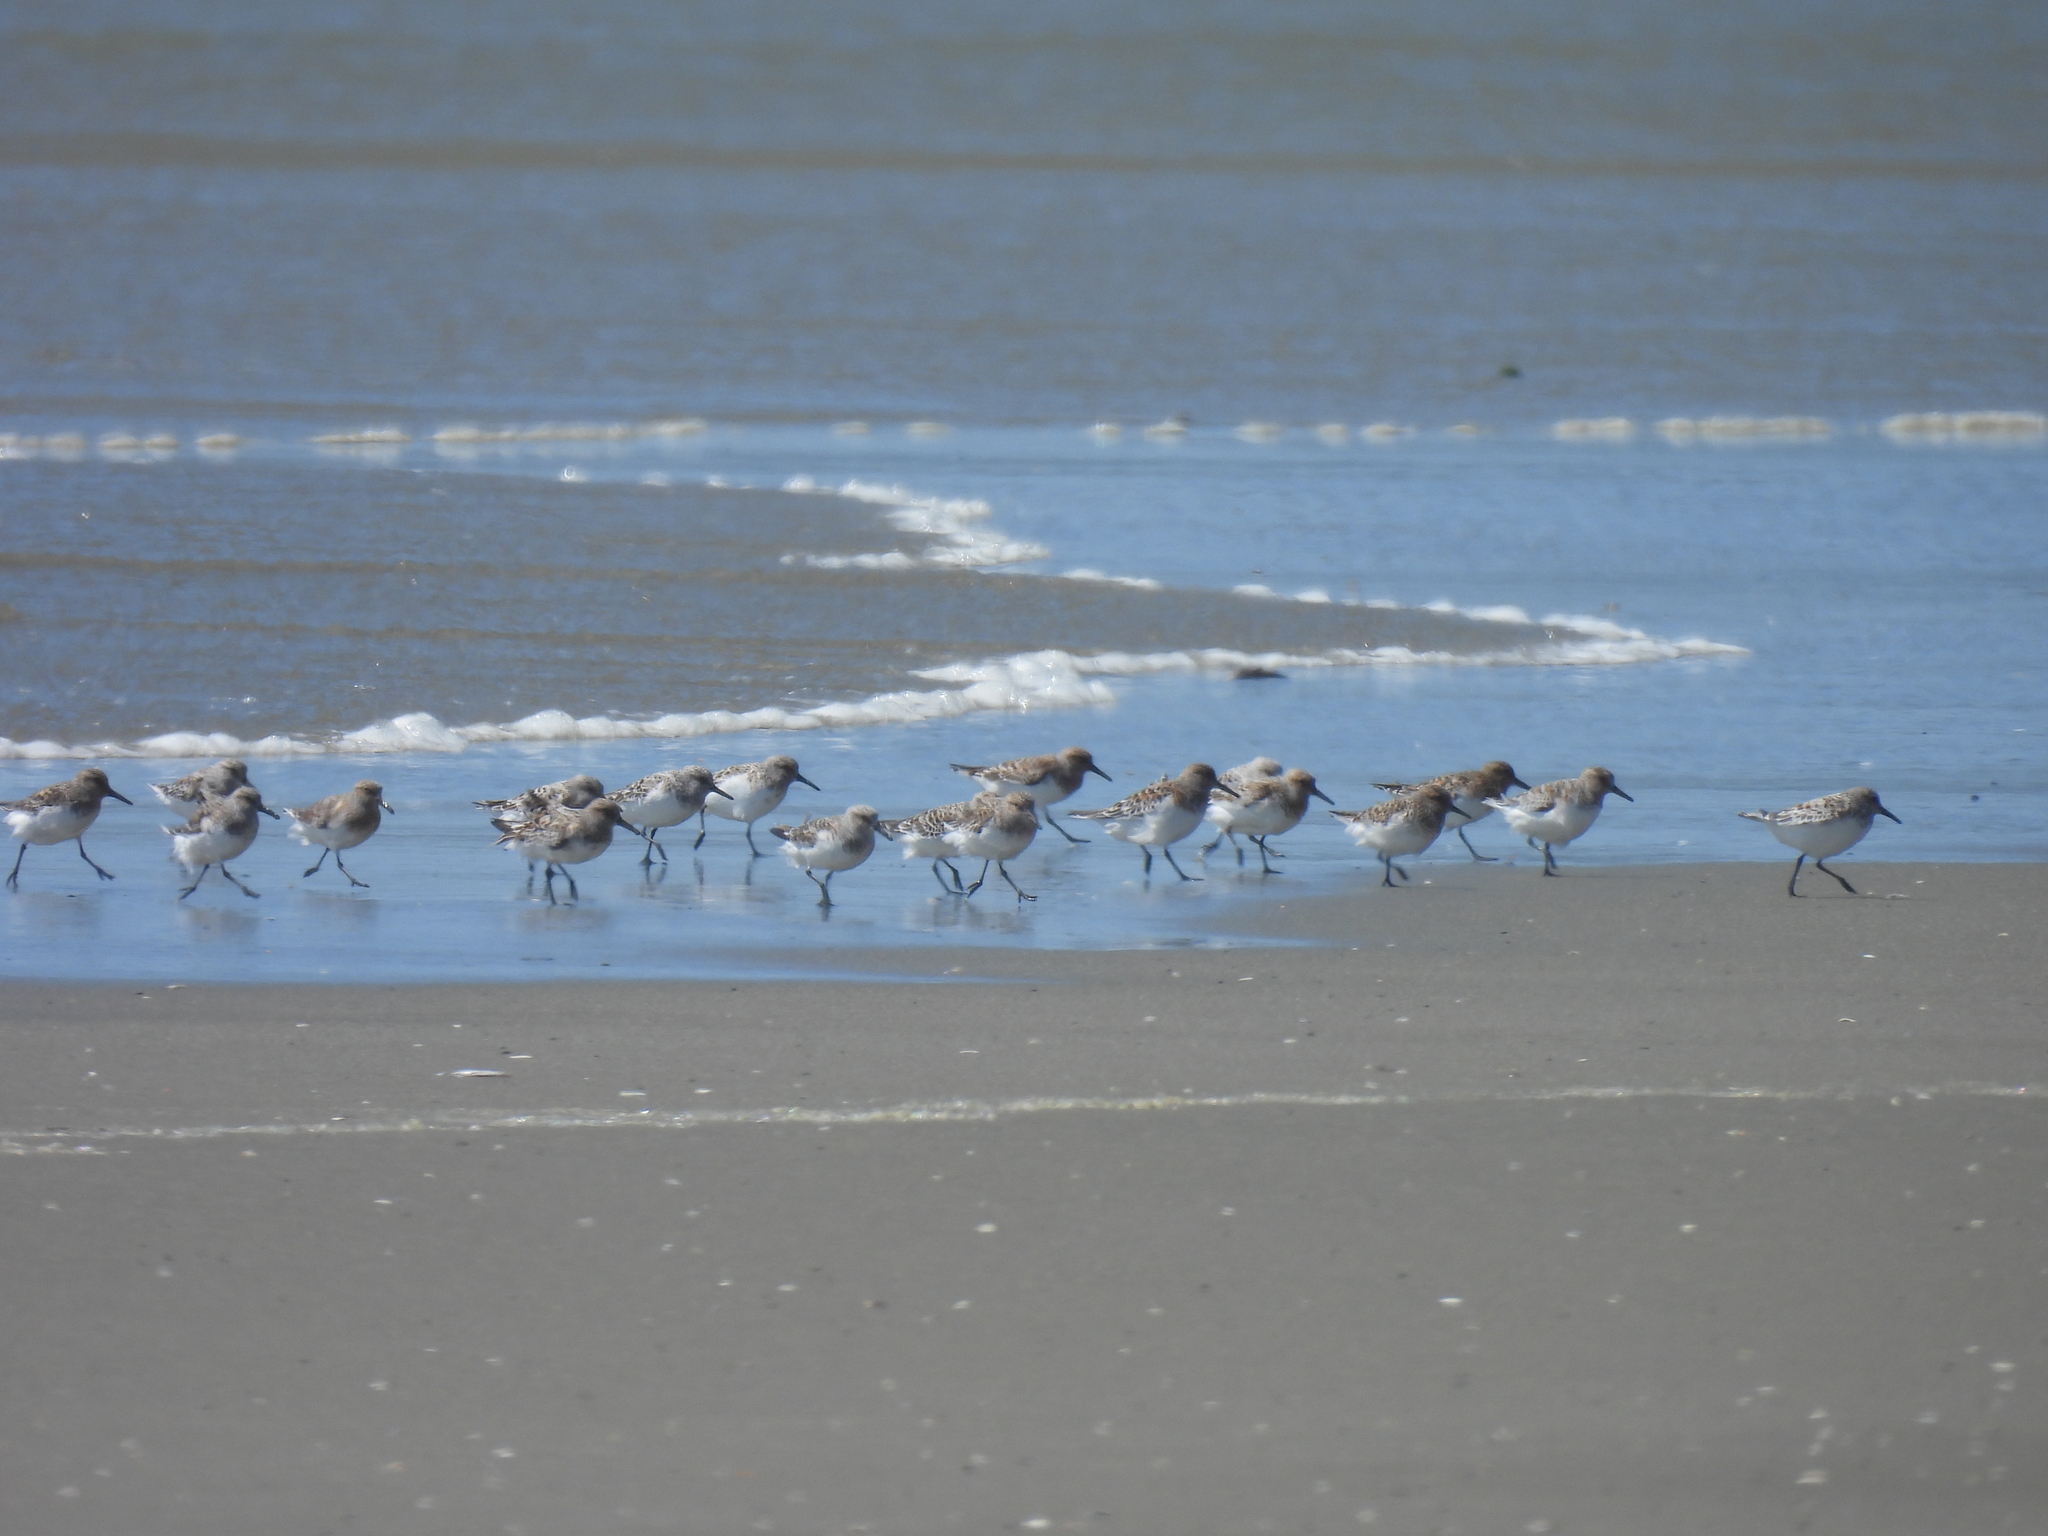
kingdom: Animalia
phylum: Chordata
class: Aves
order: Charadriiformes
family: Scolopacidae
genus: Calidris
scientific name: Calidris alba
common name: Sanderling
